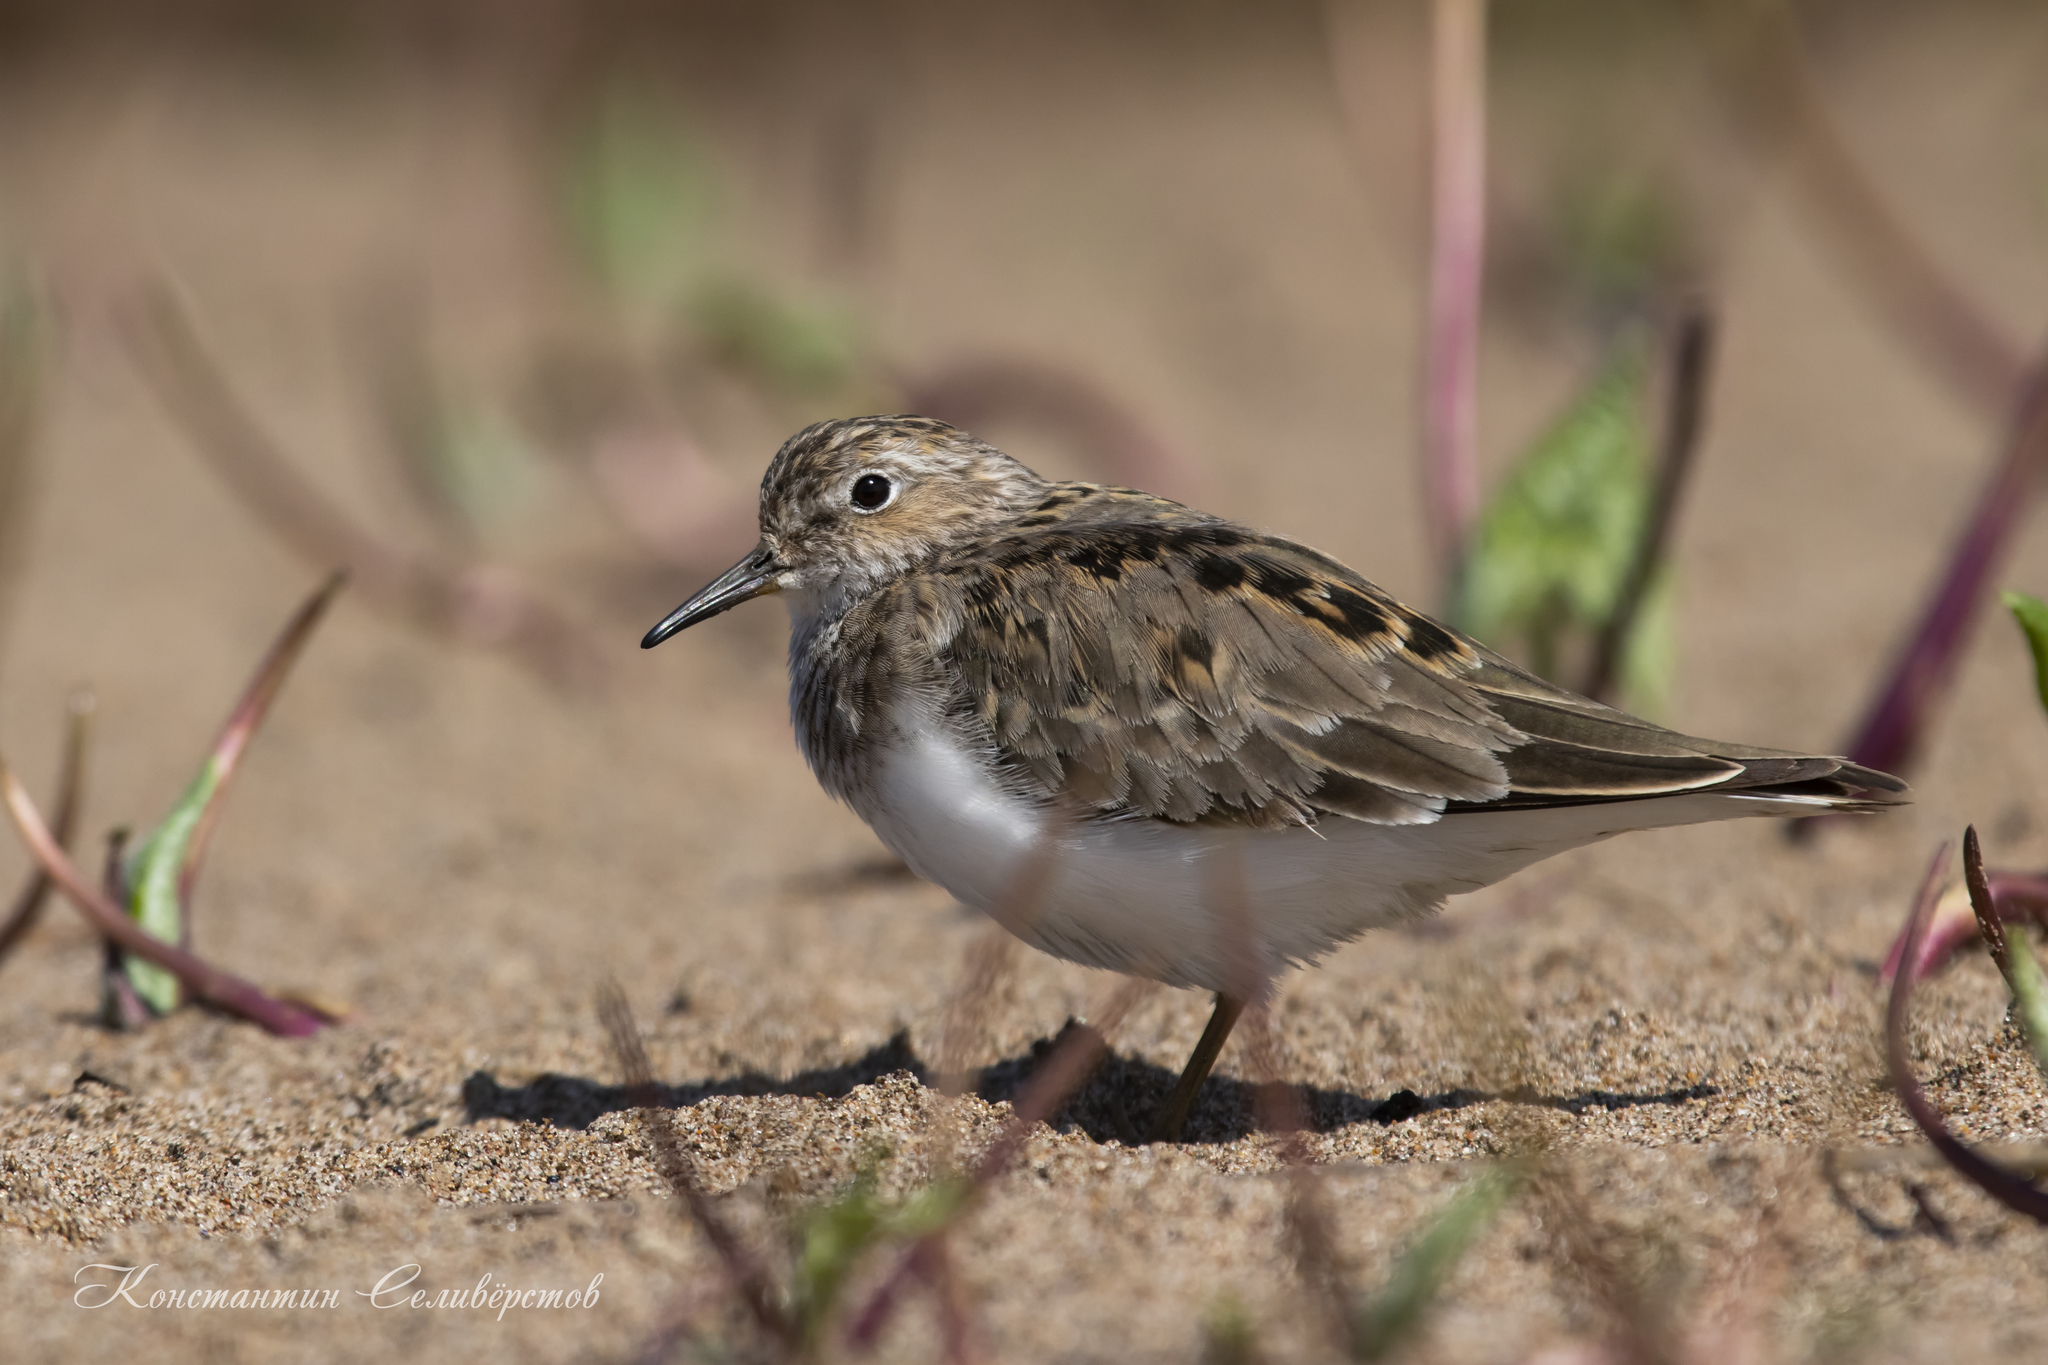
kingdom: Animalia
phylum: Chordata
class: Aves
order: Charadriiformes
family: Scolopacidae
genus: Calidris
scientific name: Calidris temminckii
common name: Temminck's stint
